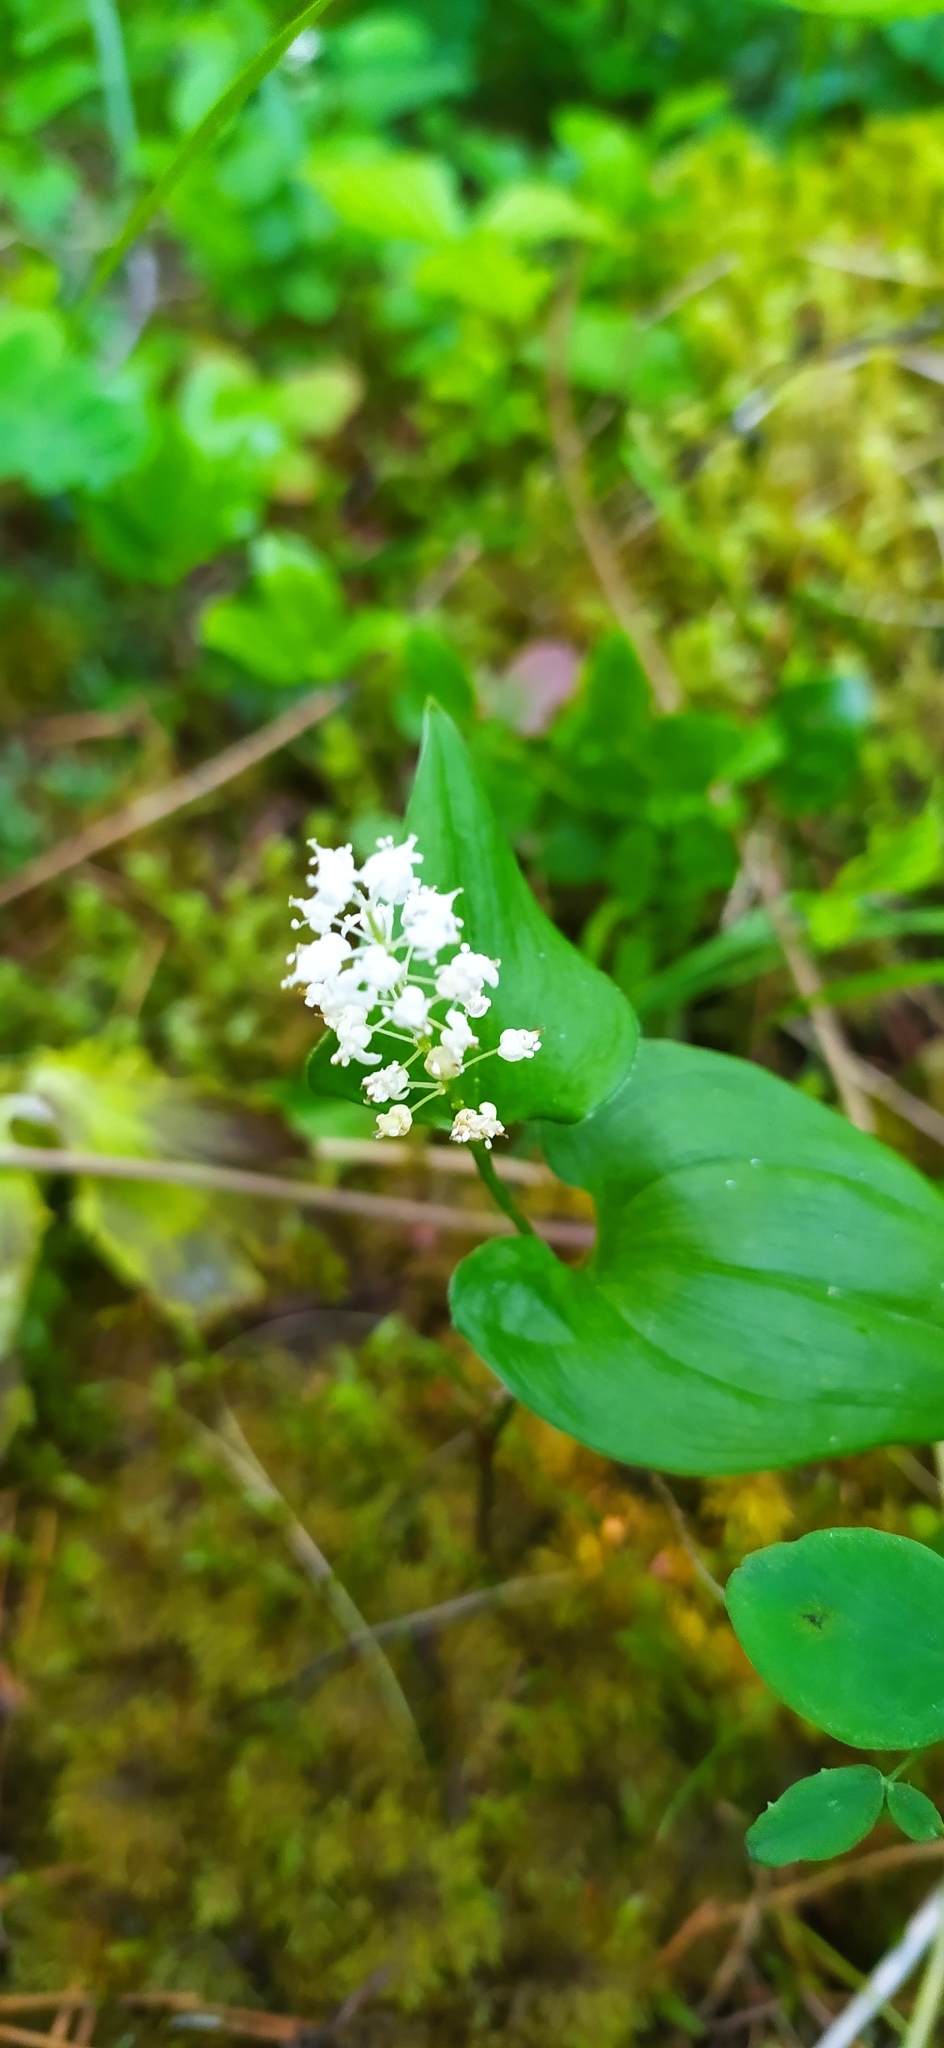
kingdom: Plantae
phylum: Tracheophyta
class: Liliopsida
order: Asparagales
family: Asparagaceae
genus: Maianthemum
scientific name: Maianthemum bifolium
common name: May lily
